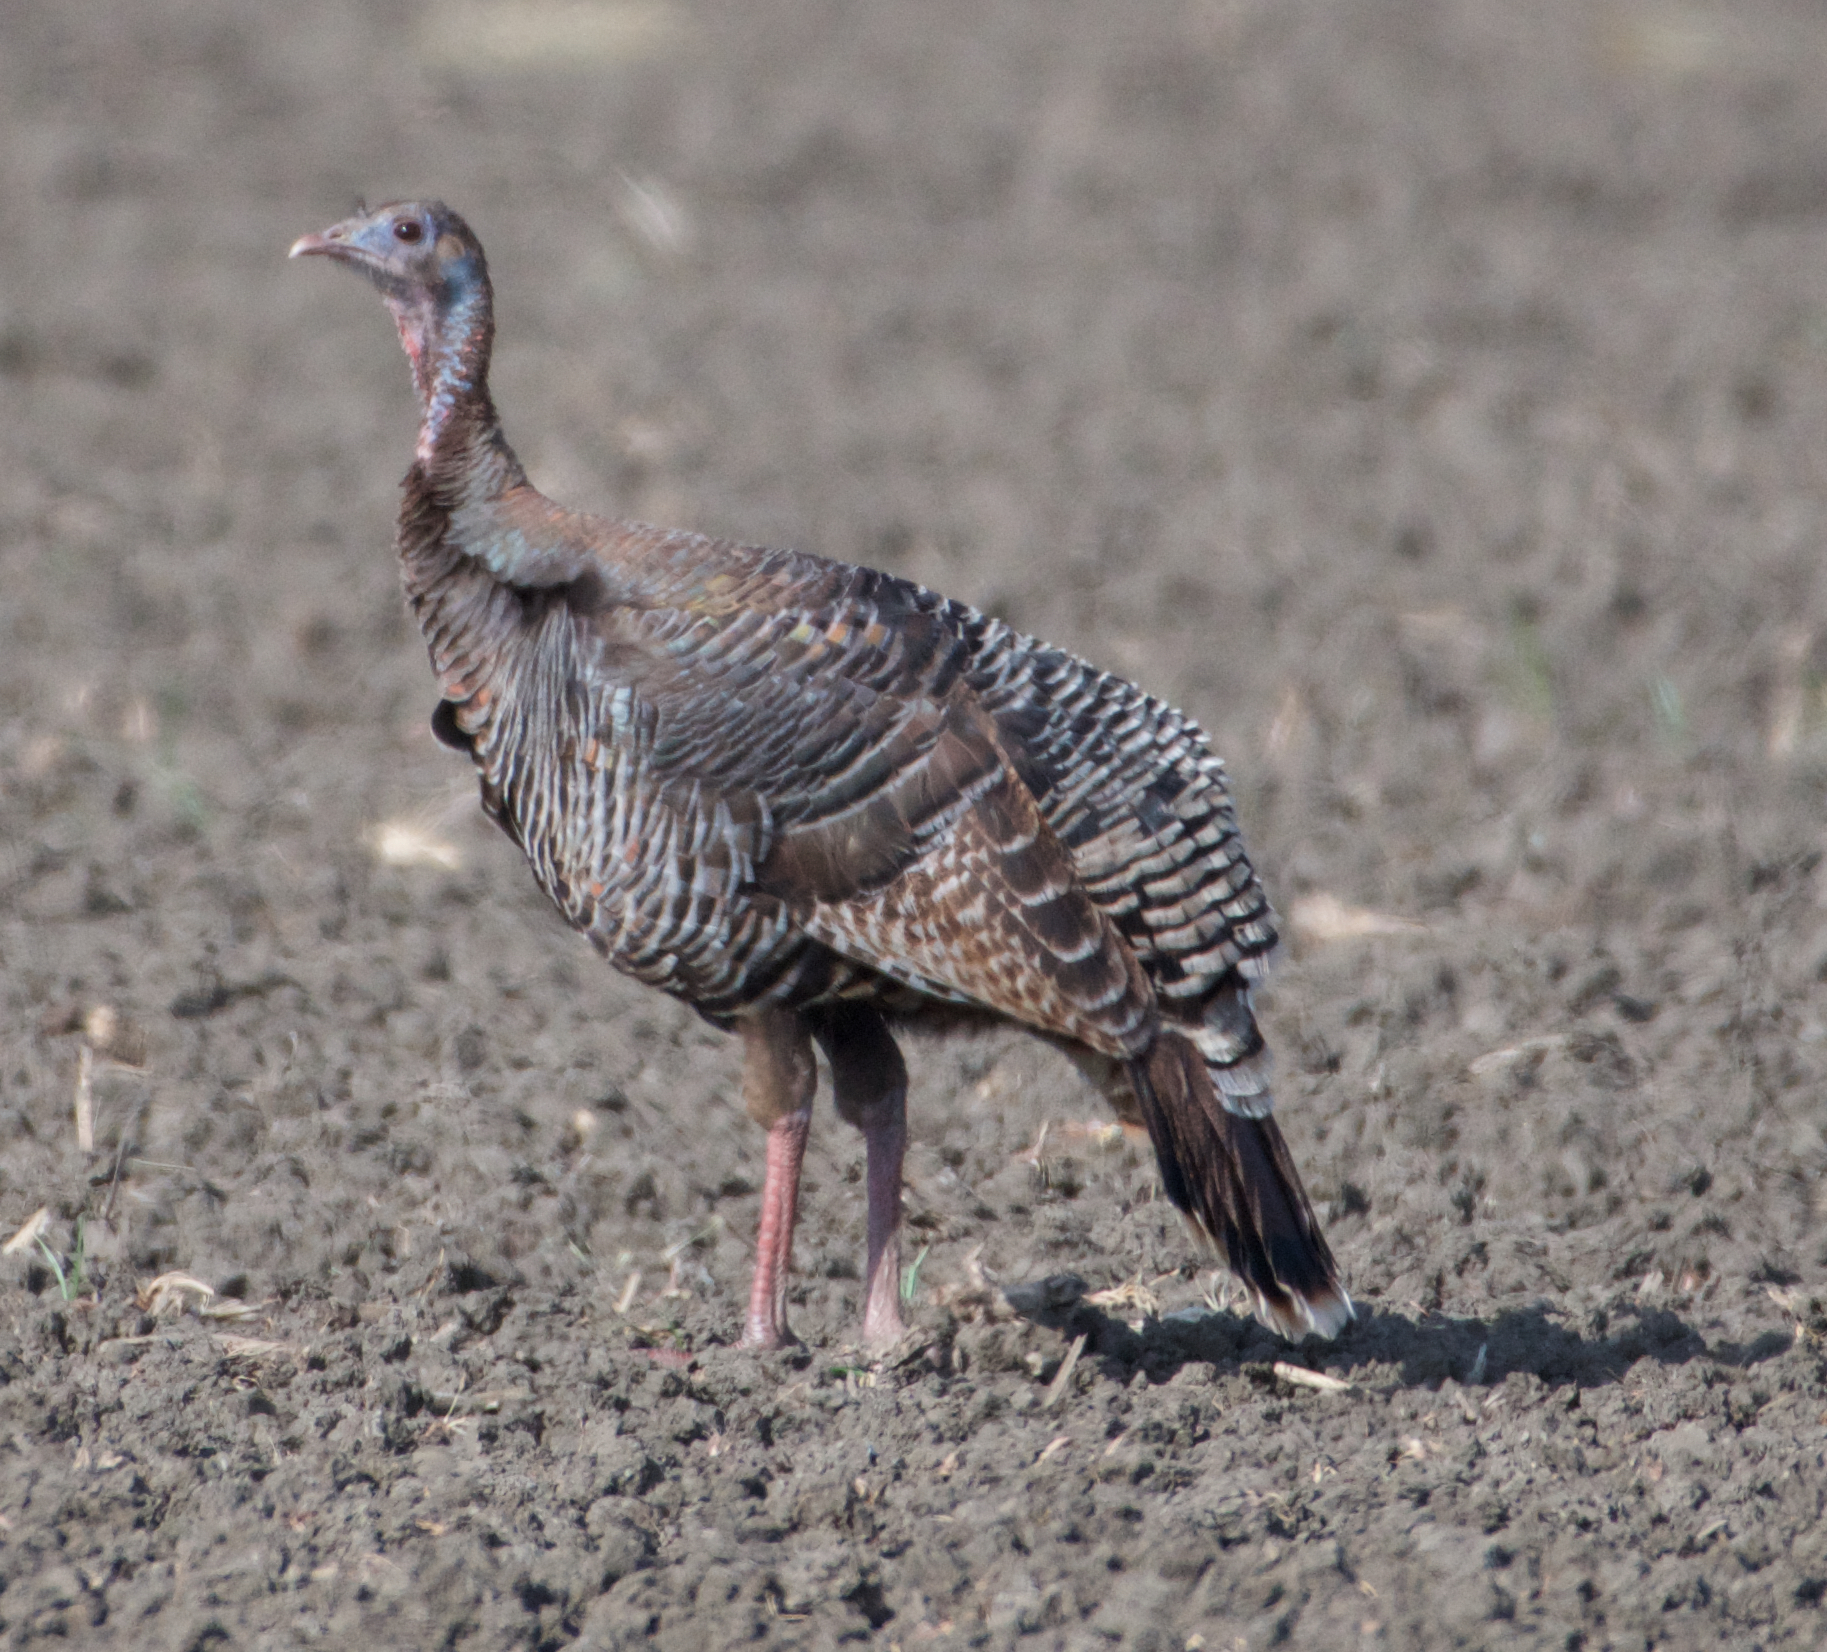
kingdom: Animalia
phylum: Chordata
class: Aves
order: Galliformes
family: Phasianidae
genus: Meleagris
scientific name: Meleagris gallopavo
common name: Wild turkey
